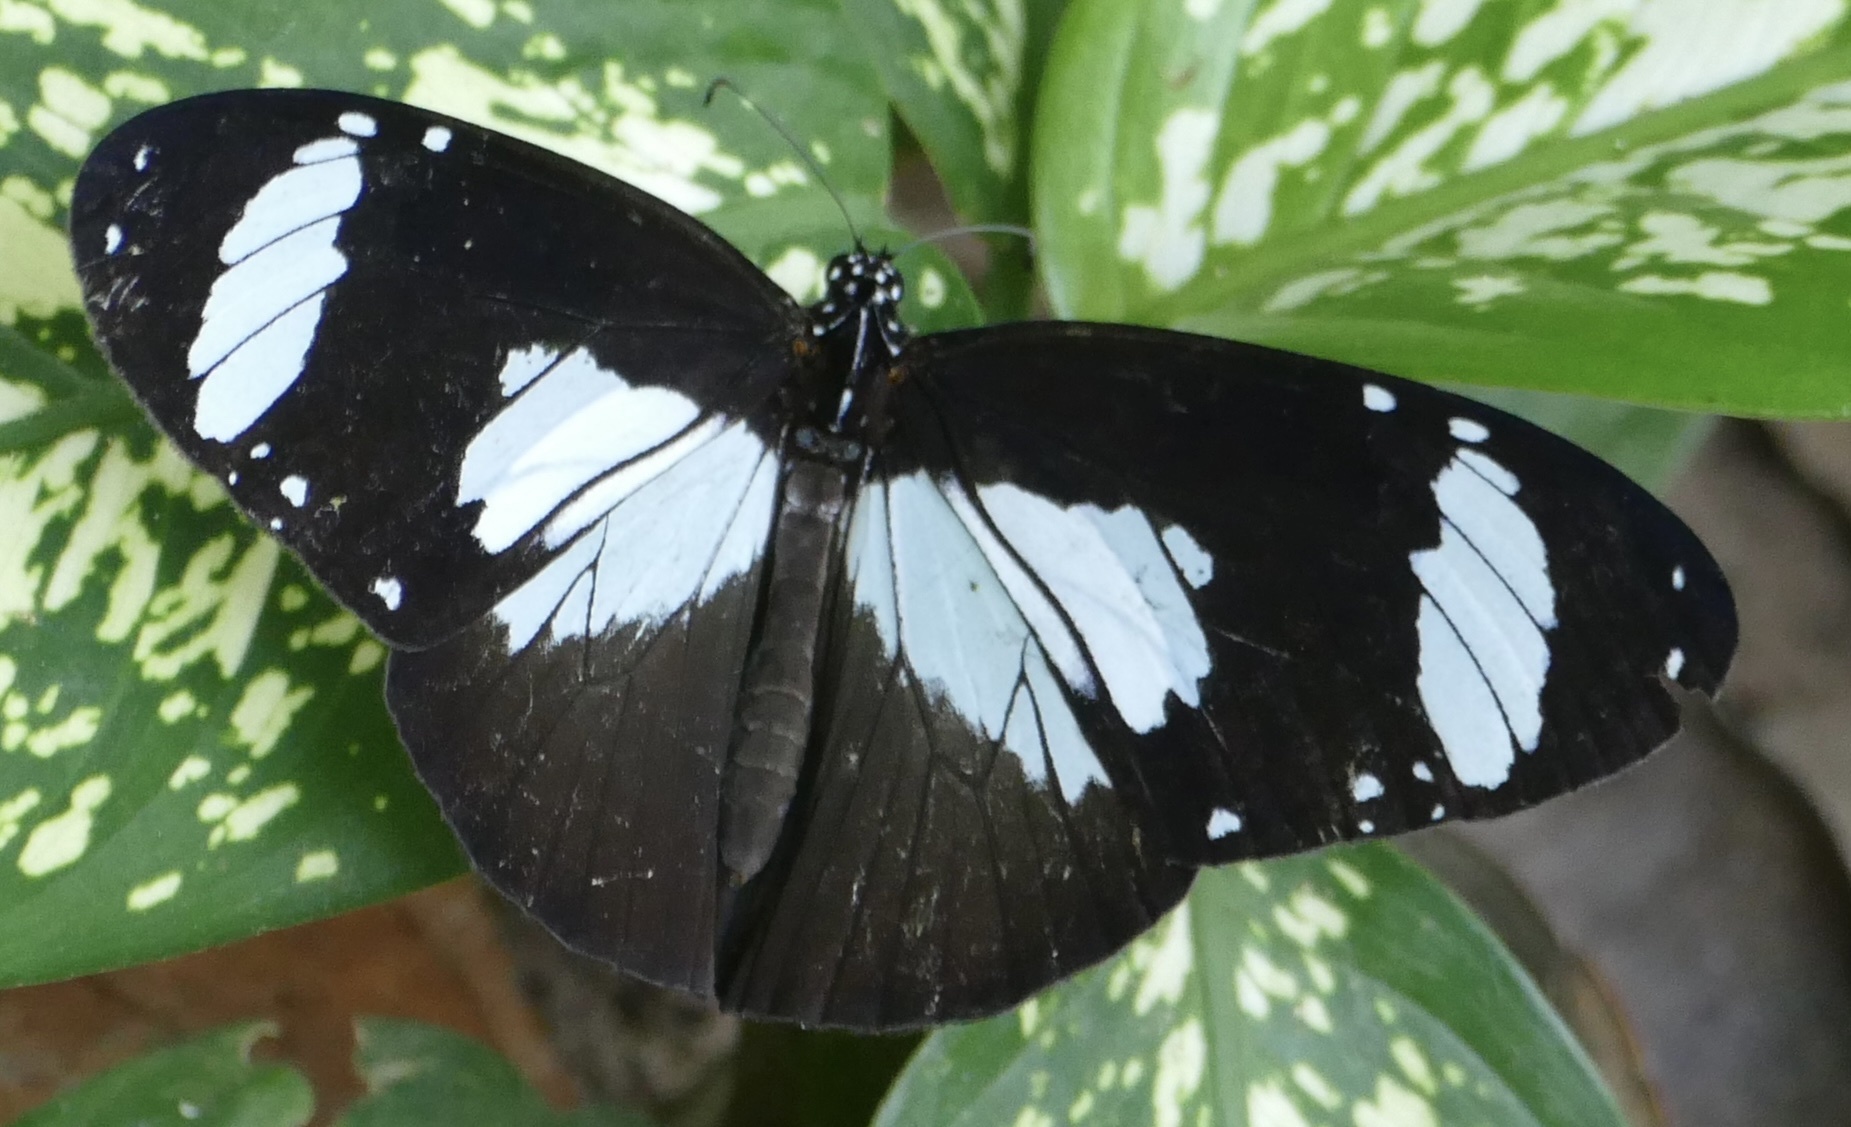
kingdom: Animalia
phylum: Arthropoda
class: Insecta
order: Lepidoptera
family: Nymphalidae
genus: Amauris
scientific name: Amauris niavius
